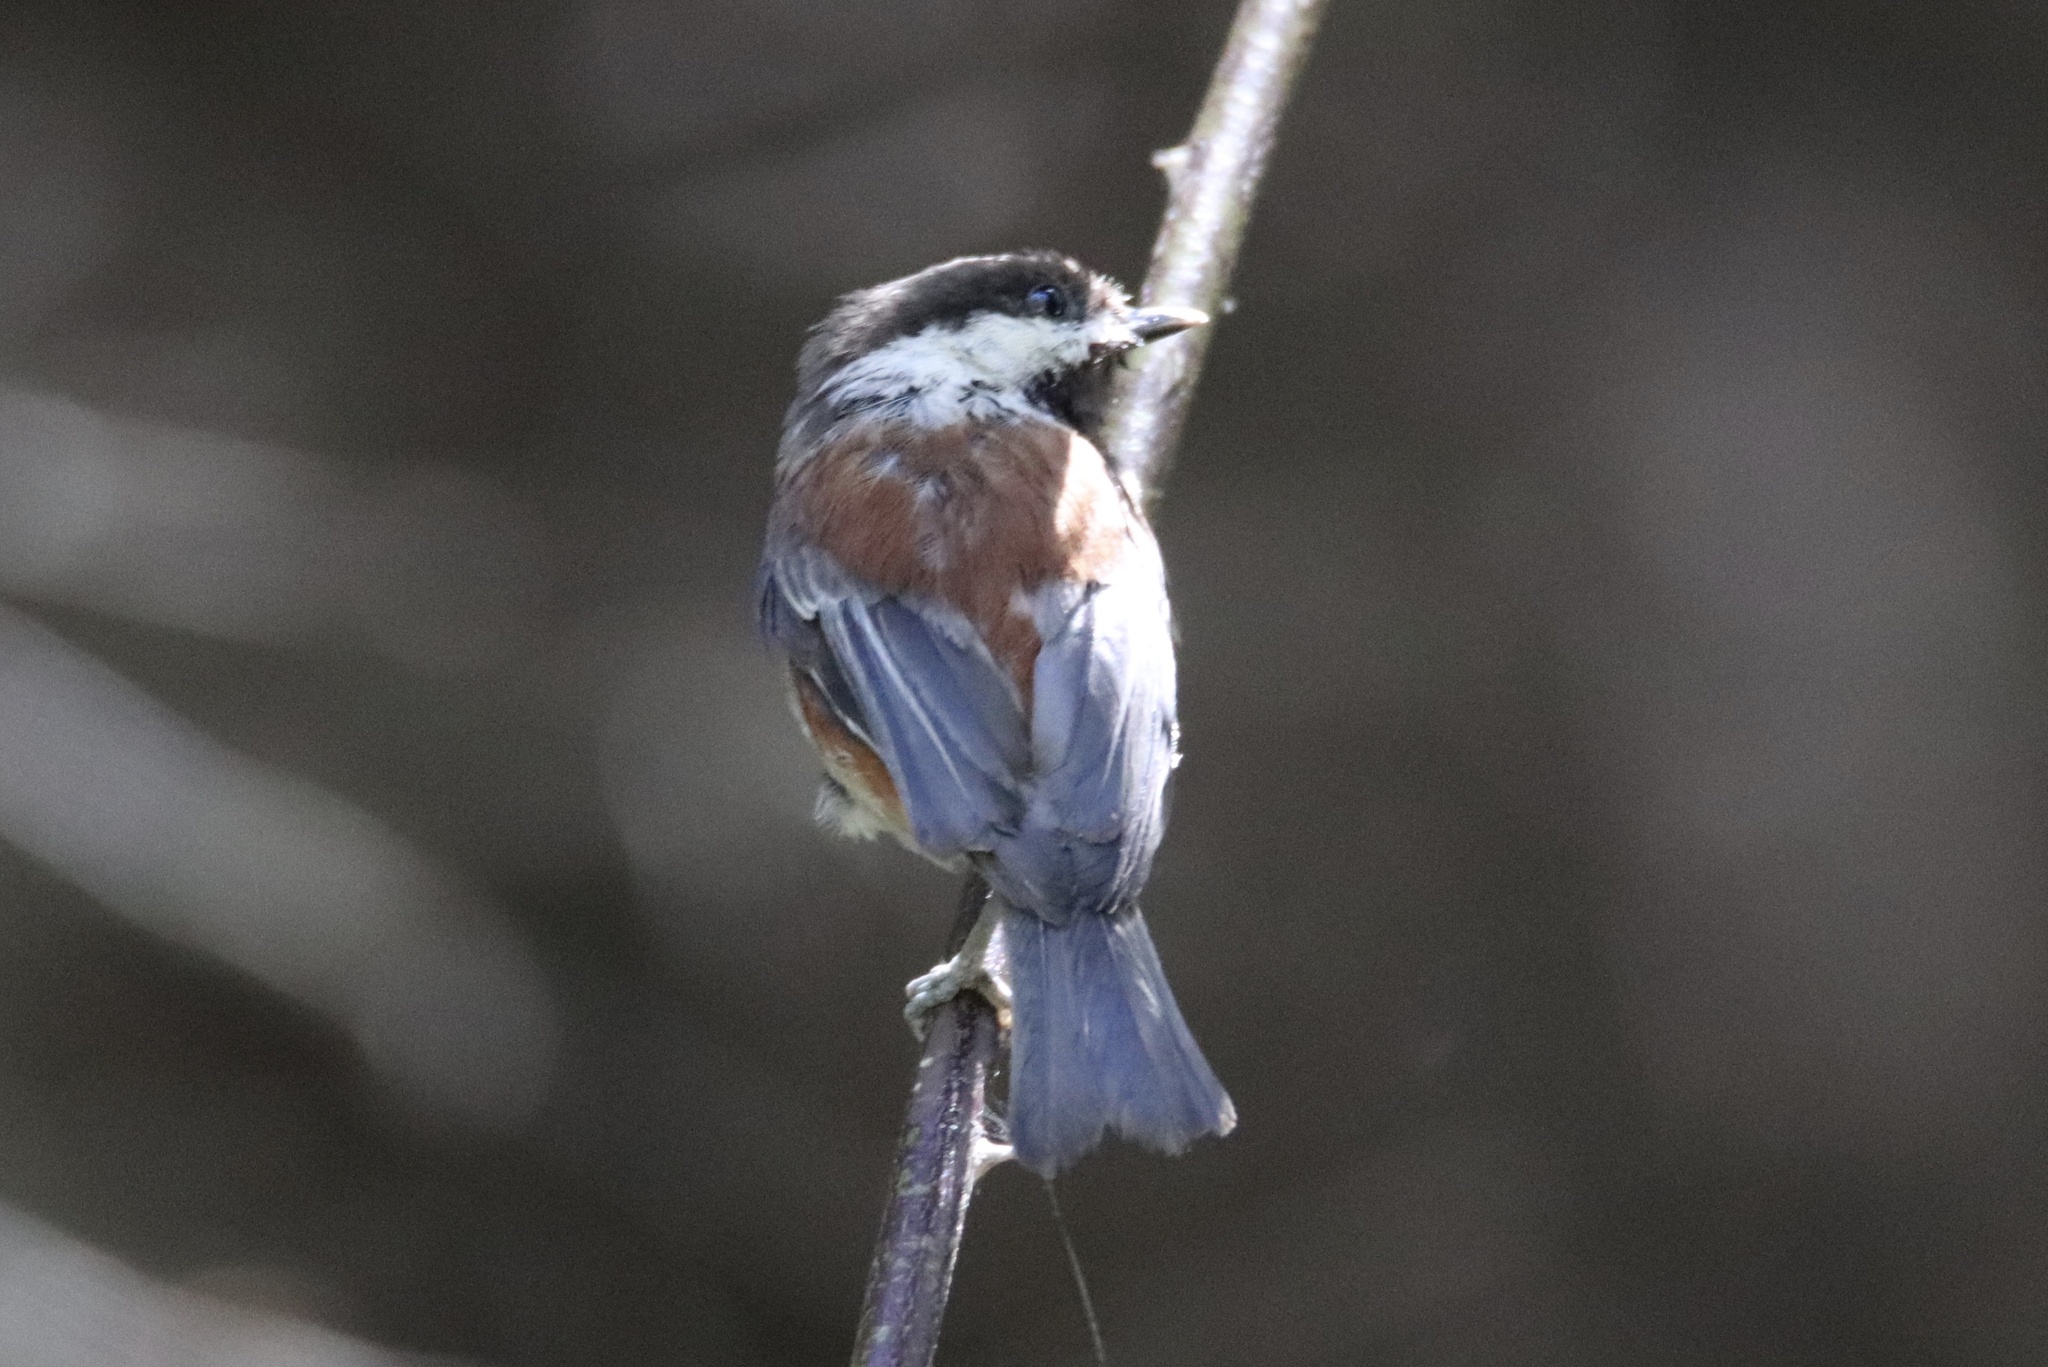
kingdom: Animalia
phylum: Chordata
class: Aves
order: Passeriformes
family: Paridae
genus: Poecile
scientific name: Poecile rufescens
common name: Chestnut-backed chickadee
